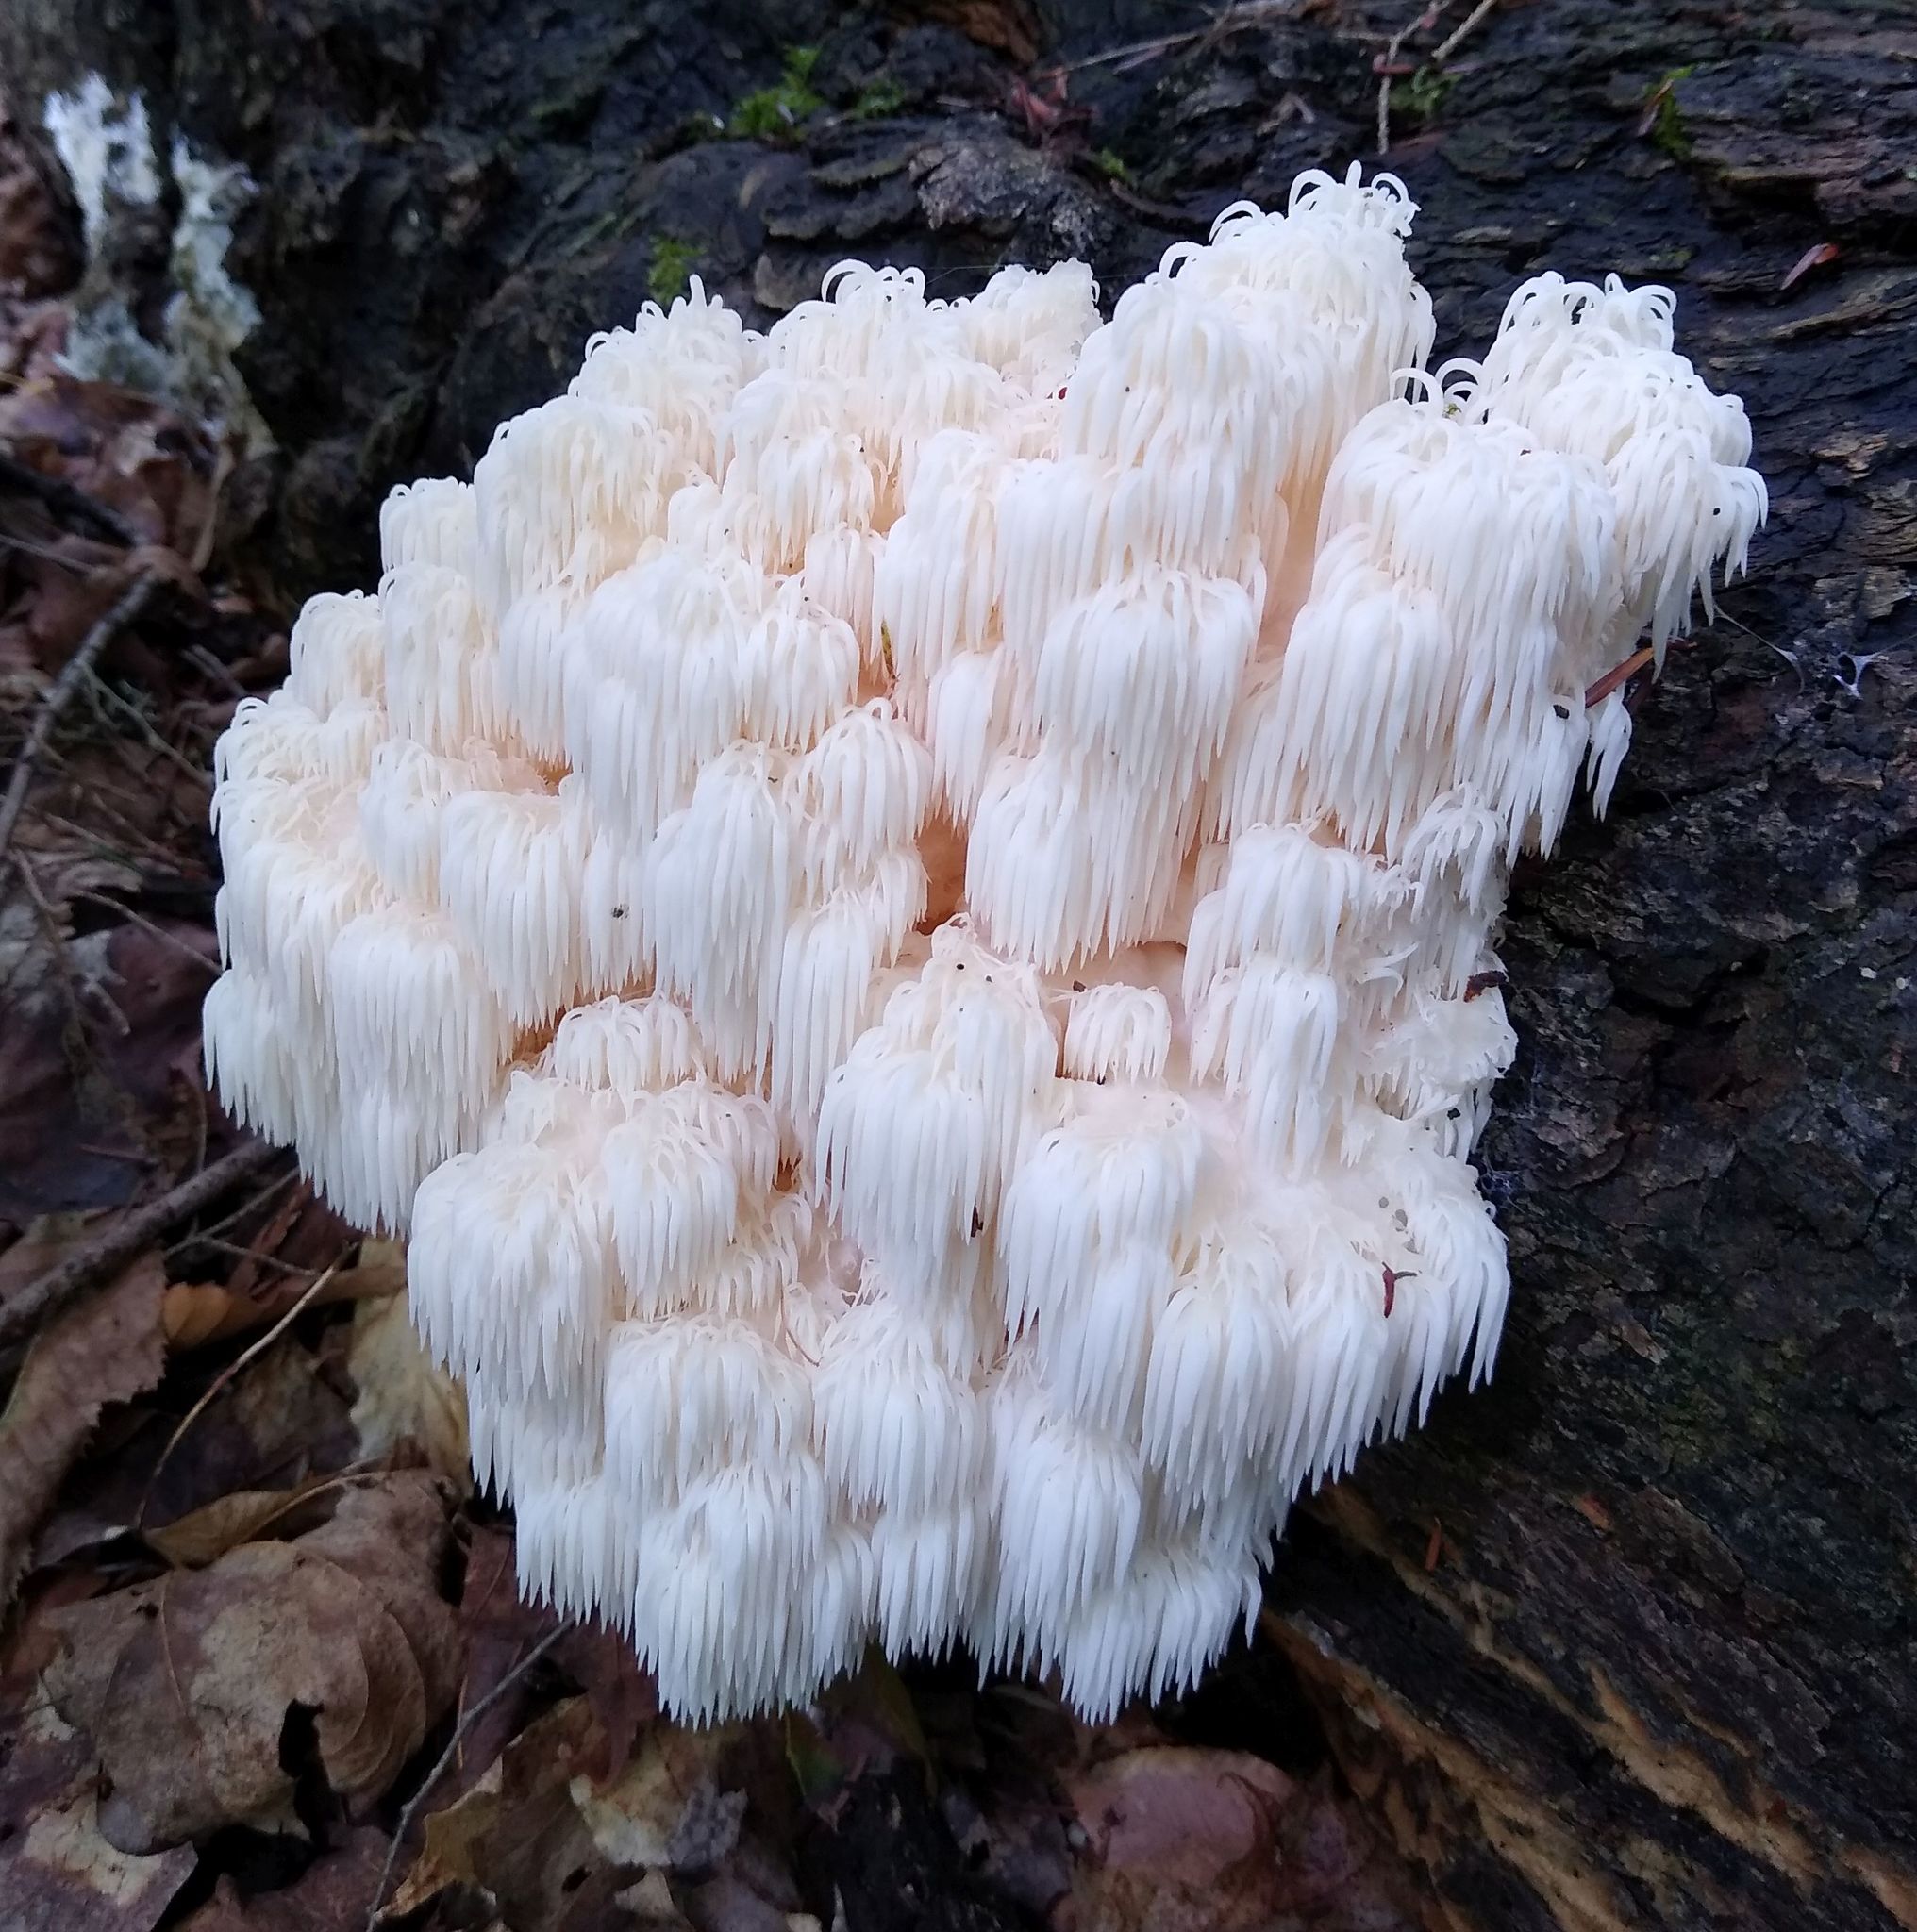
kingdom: Fungi
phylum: Basidiomycota
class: Agaricomycetes
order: Russulales
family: Hericiaceae
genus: Hericium
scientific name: Hericium americanum
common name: Bear's head tooth
